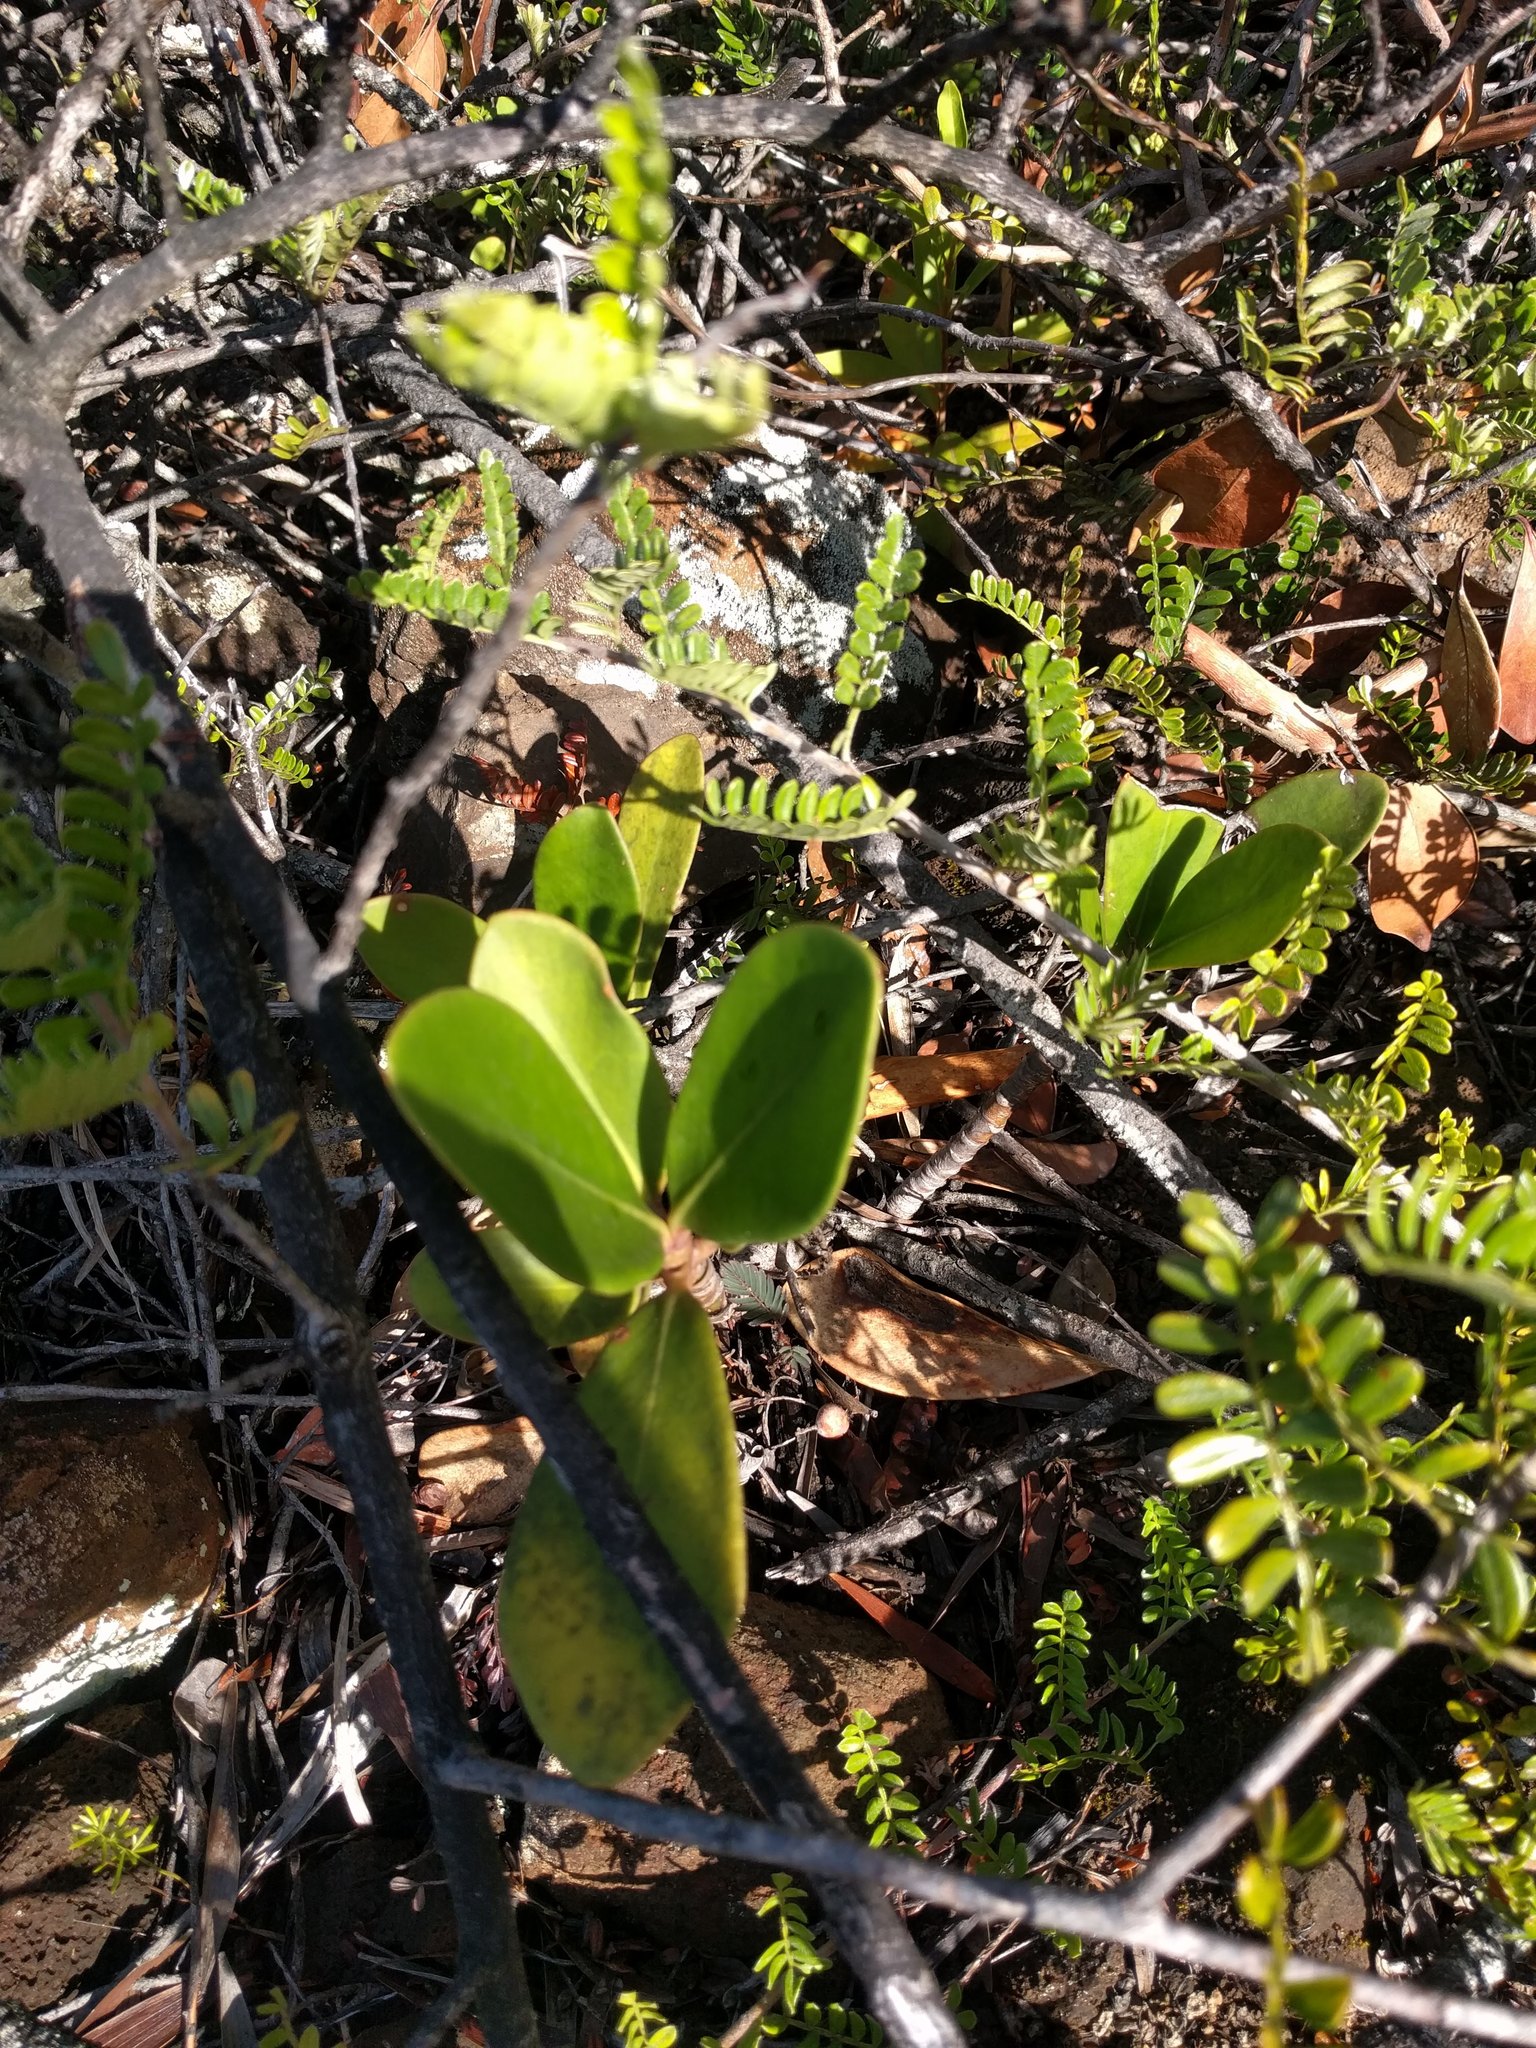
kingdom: Plantae
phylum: Tracheophyta
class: Magnoliopsida
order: Malpighiales
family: Clusiaceae
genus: Clusia
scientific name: Clusia rosea
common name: Scotch attorney
